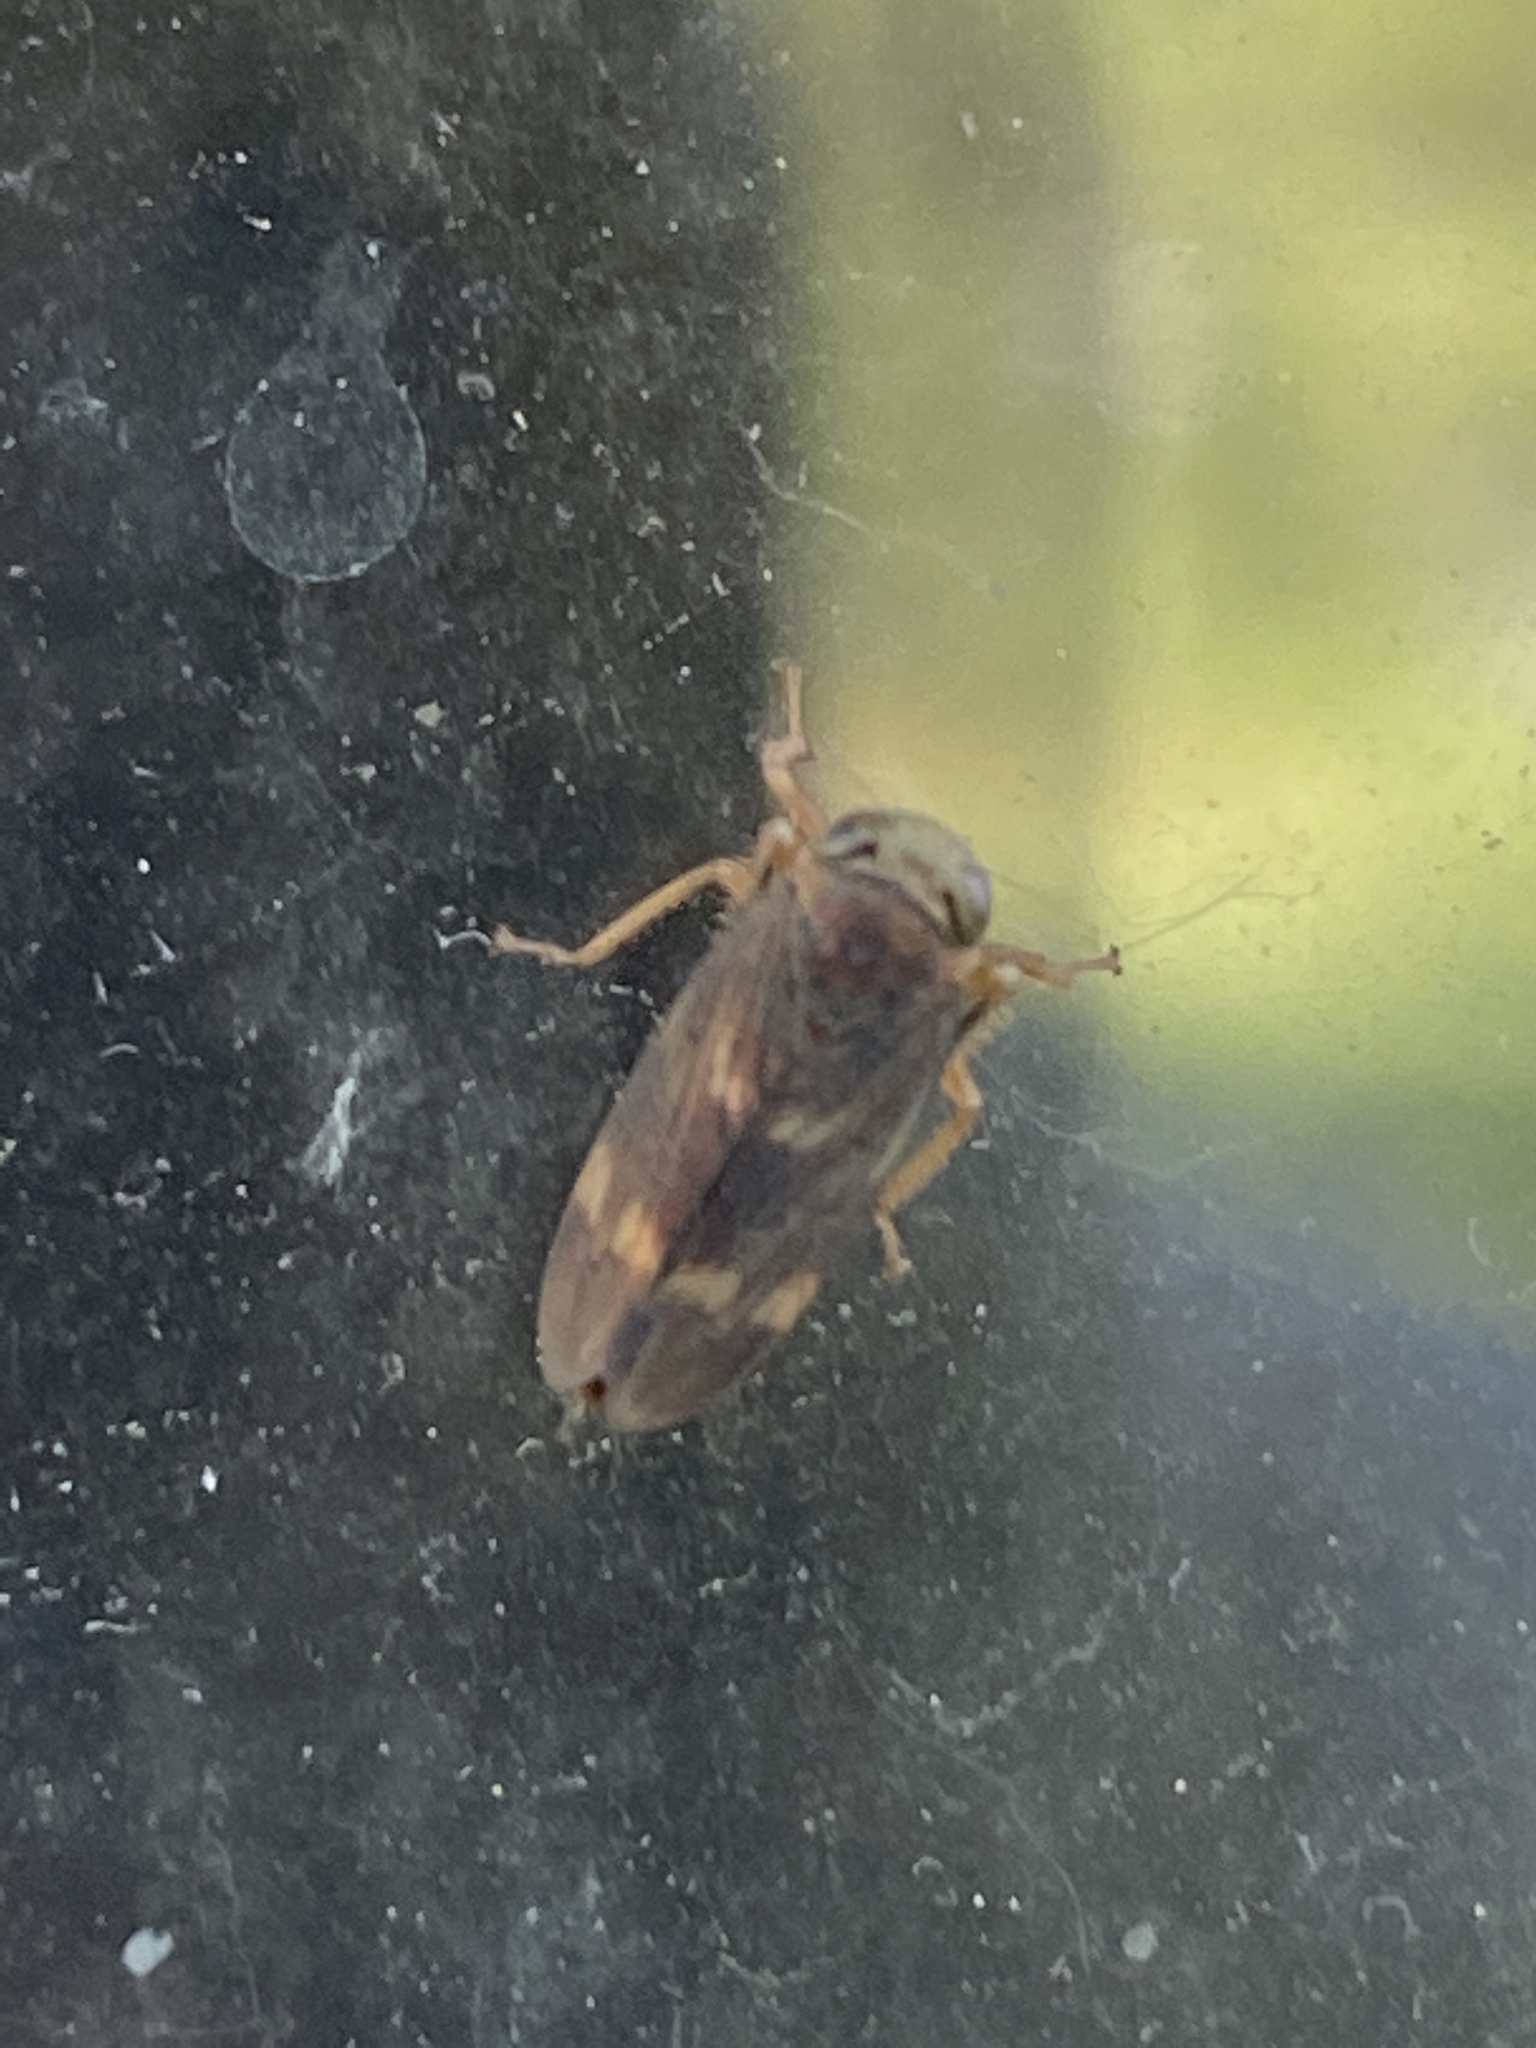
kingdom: Animalia
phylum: Arthropoda
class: Insecta
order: Hemiptera
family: Cicadellidae
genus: Jikradia
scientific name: Jikradia olitoria
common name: Coppery leafhopper
